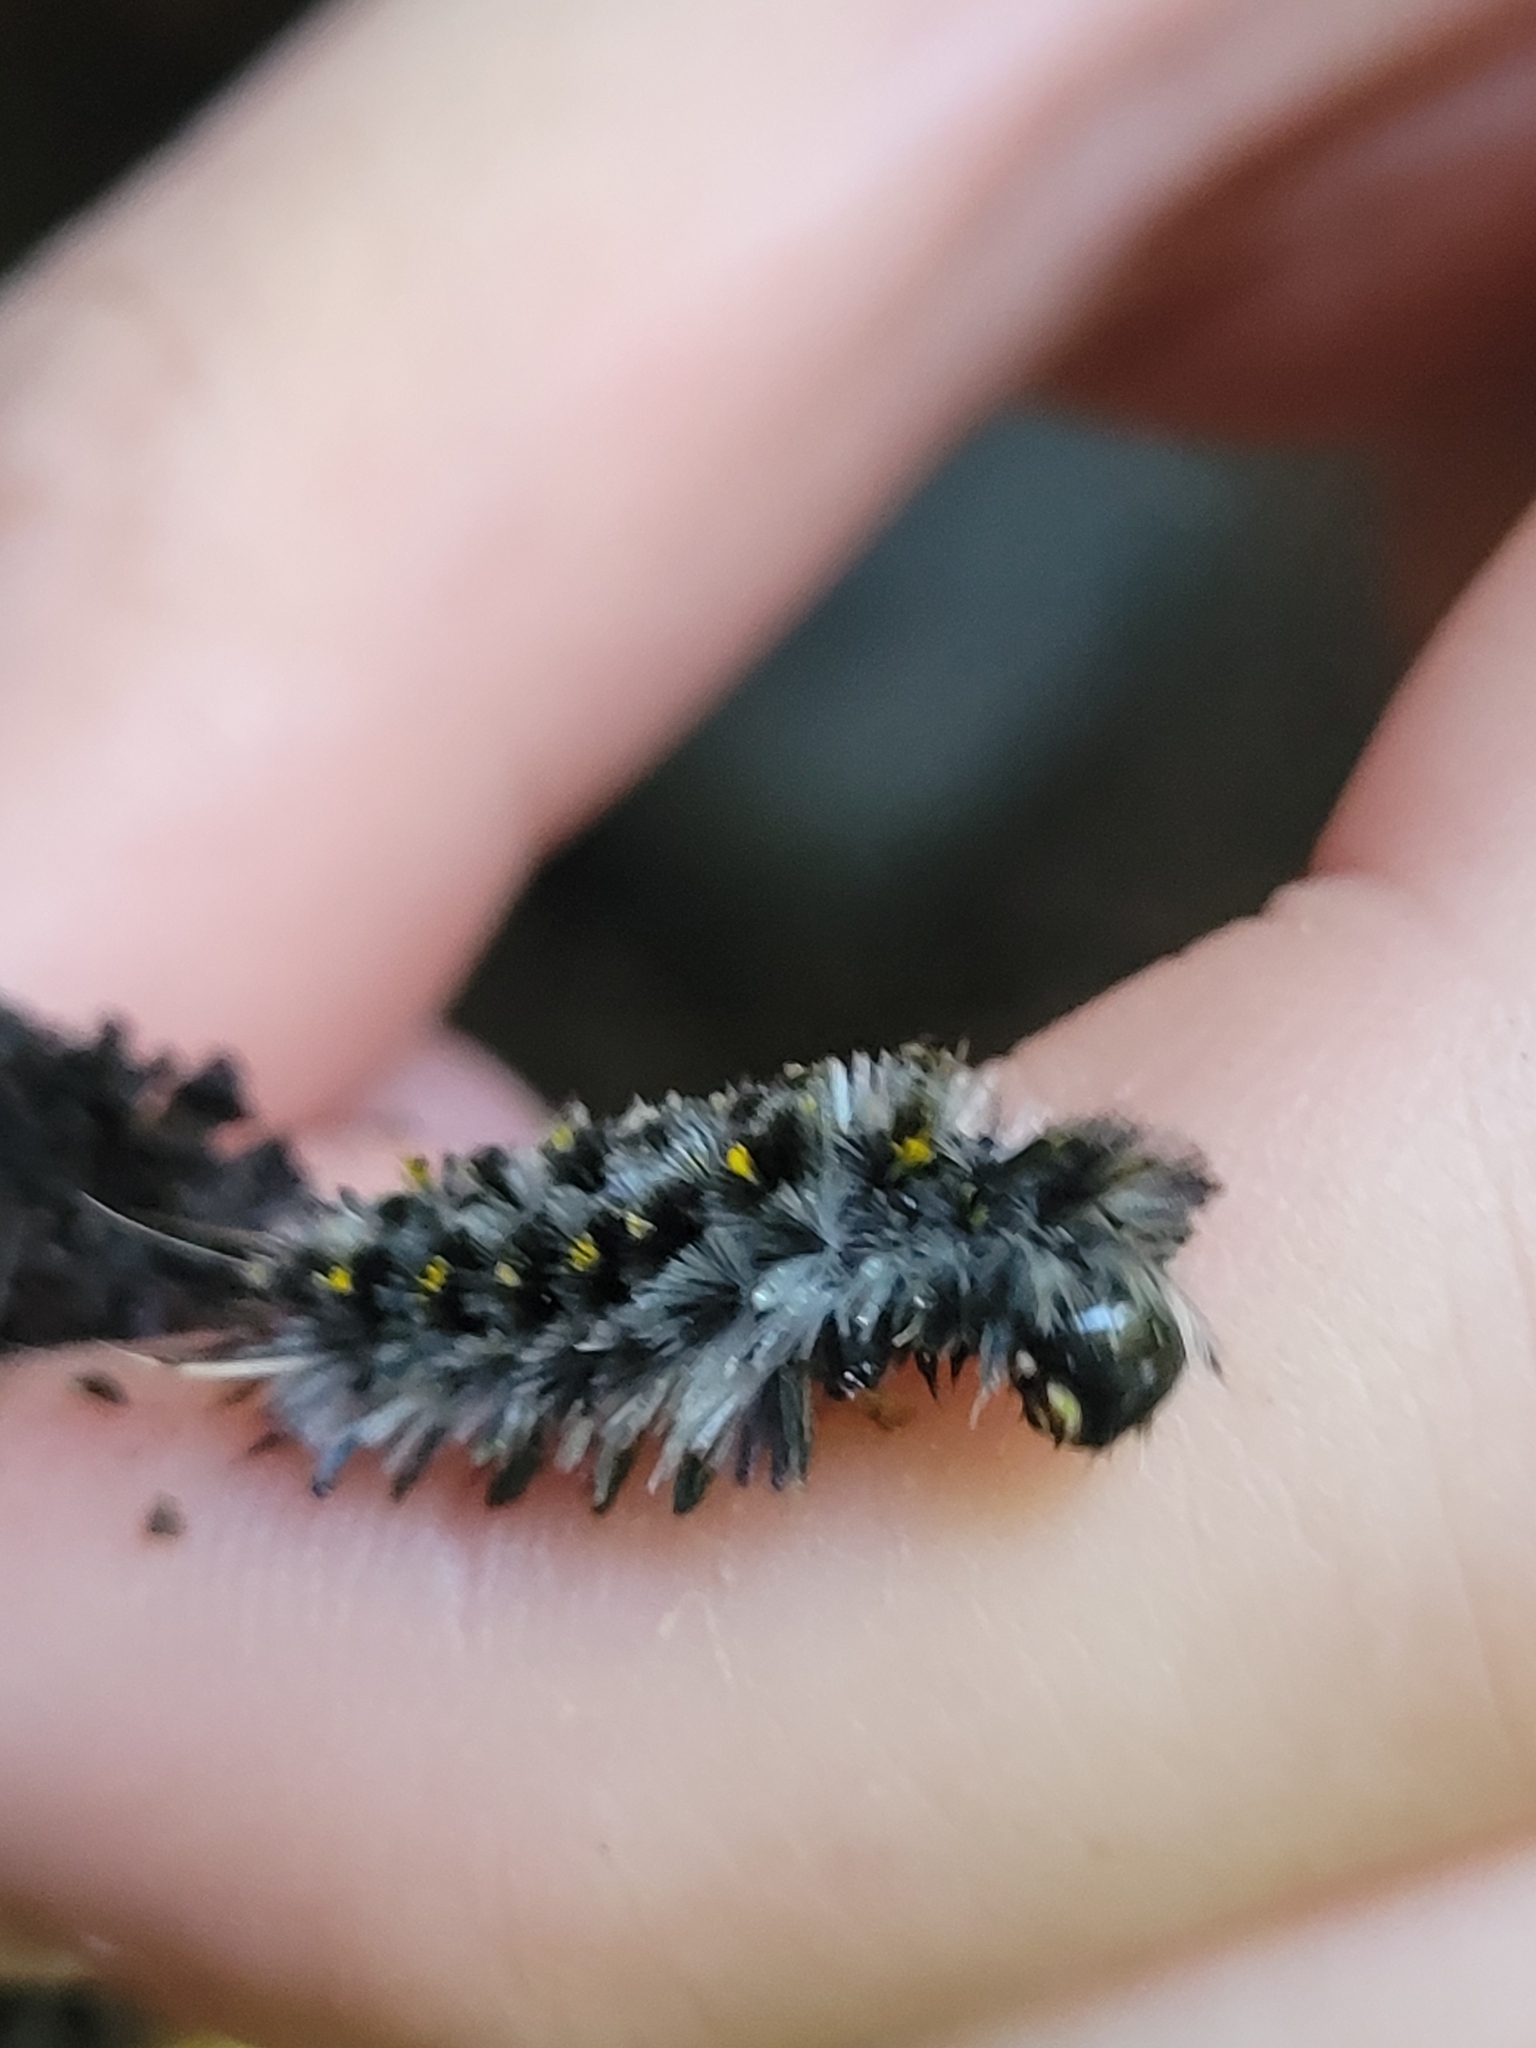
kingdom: Animalia
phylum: Arthropoda
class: Insecta
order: Lepidoptera
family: Erebidae
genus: Lophocampa
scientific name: Lophocampa roseata
